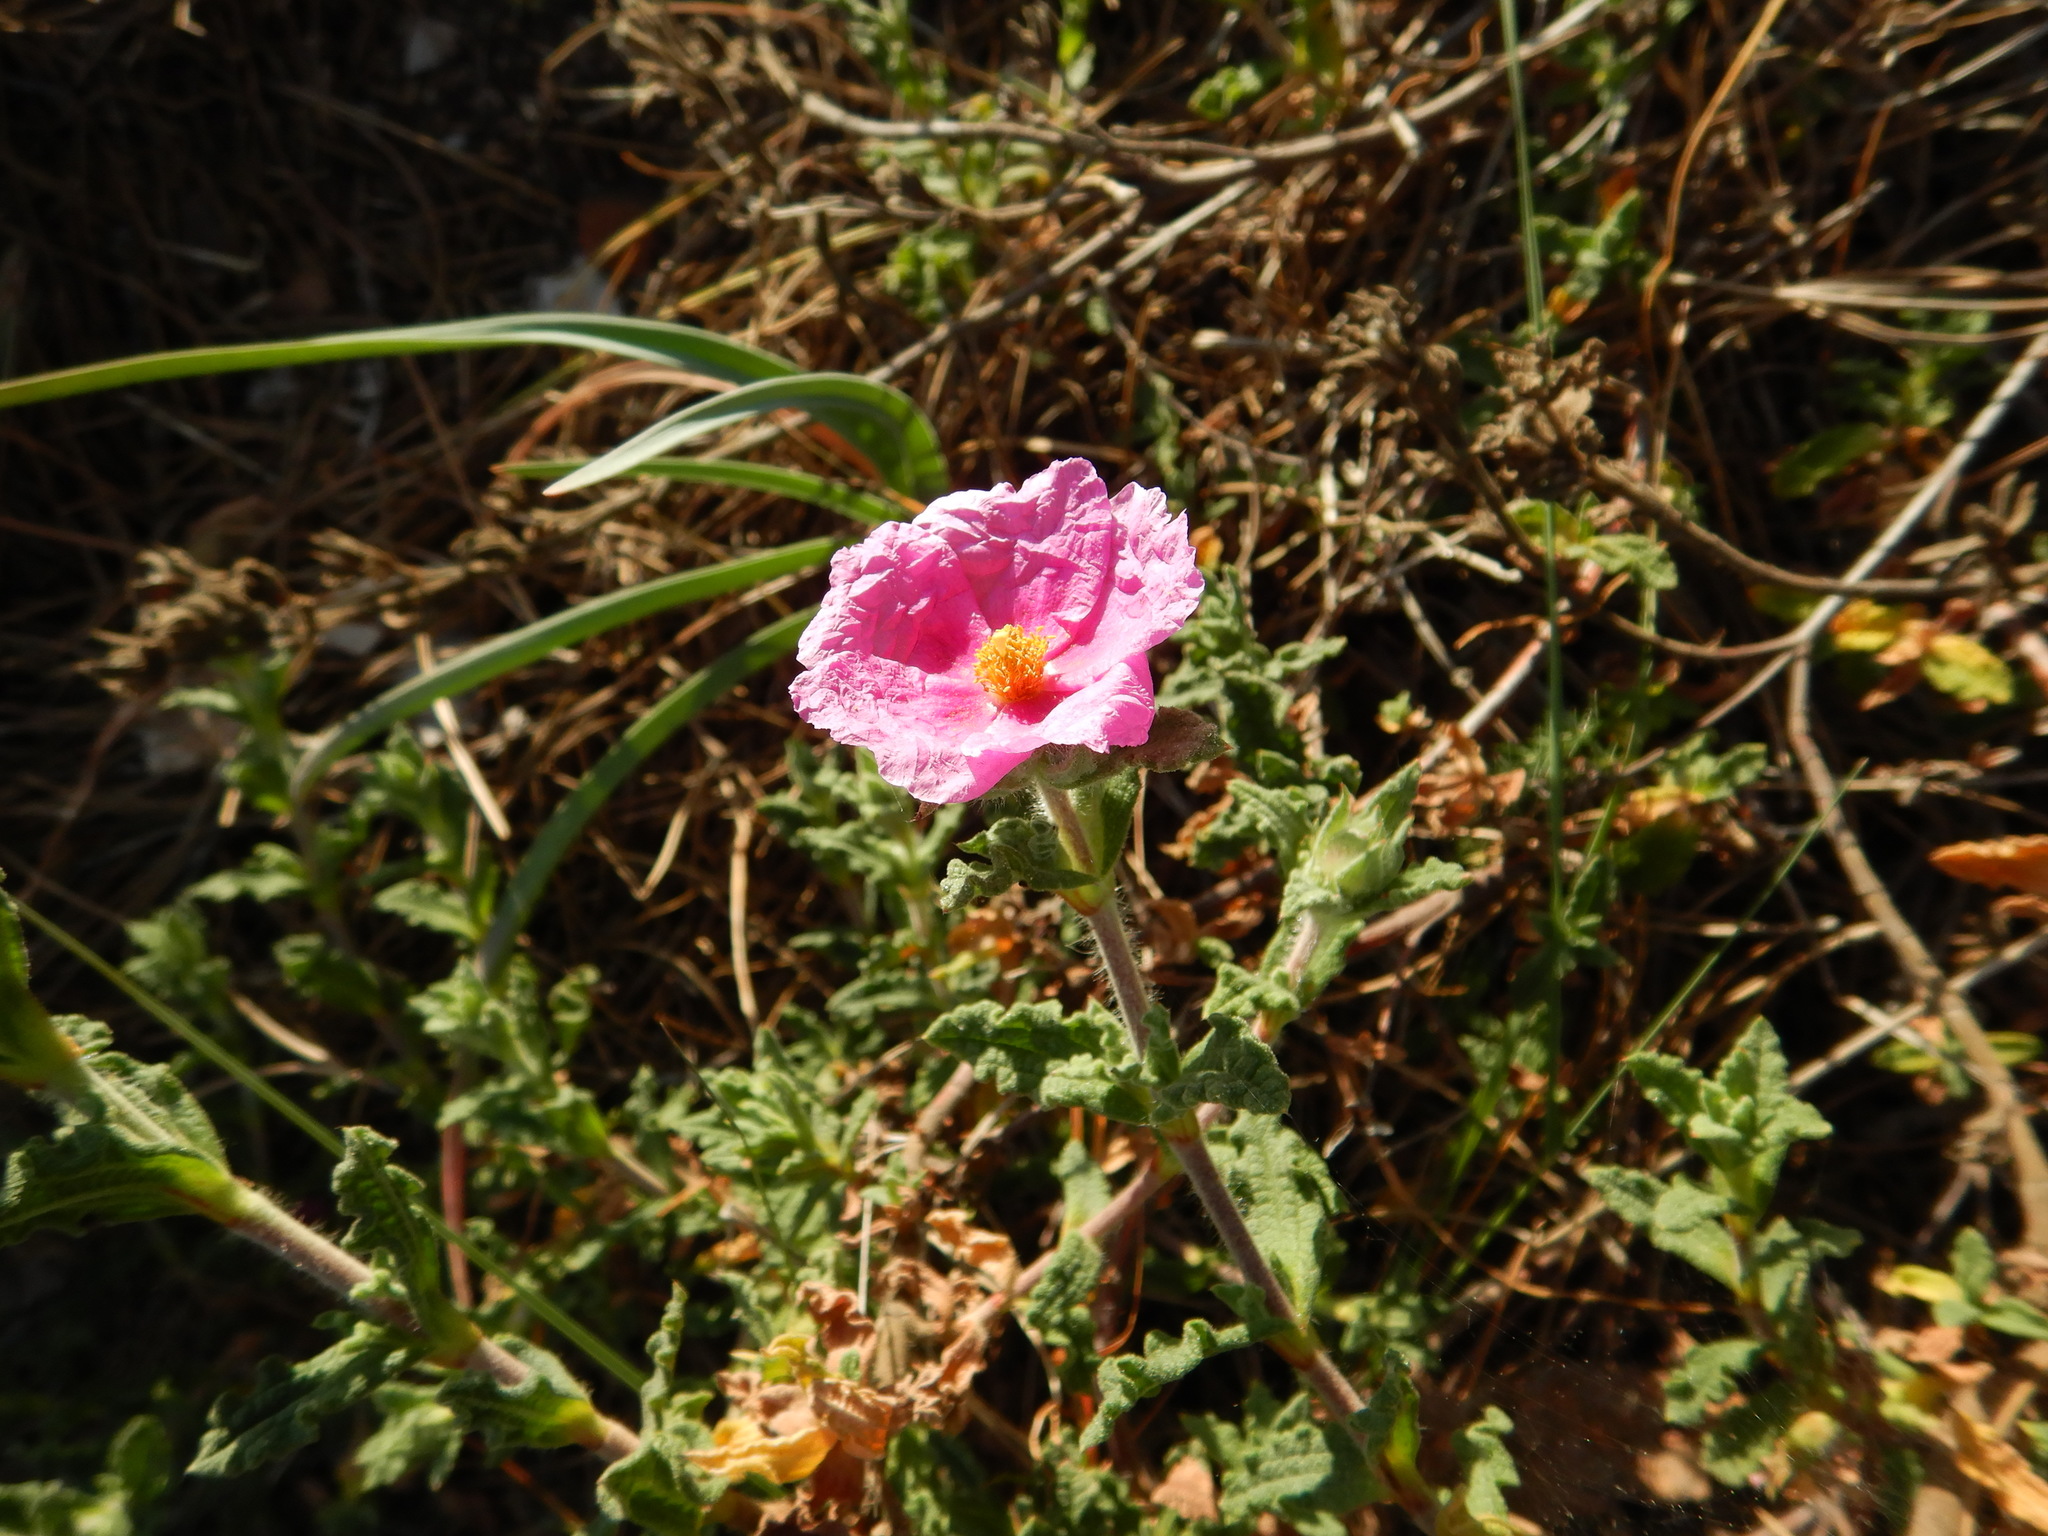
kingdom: Plantae
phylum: Tracheophyta
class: Magnoliopsida
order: Malvales
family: Cistaceae
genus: Cistus
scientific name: Cistus crispus
